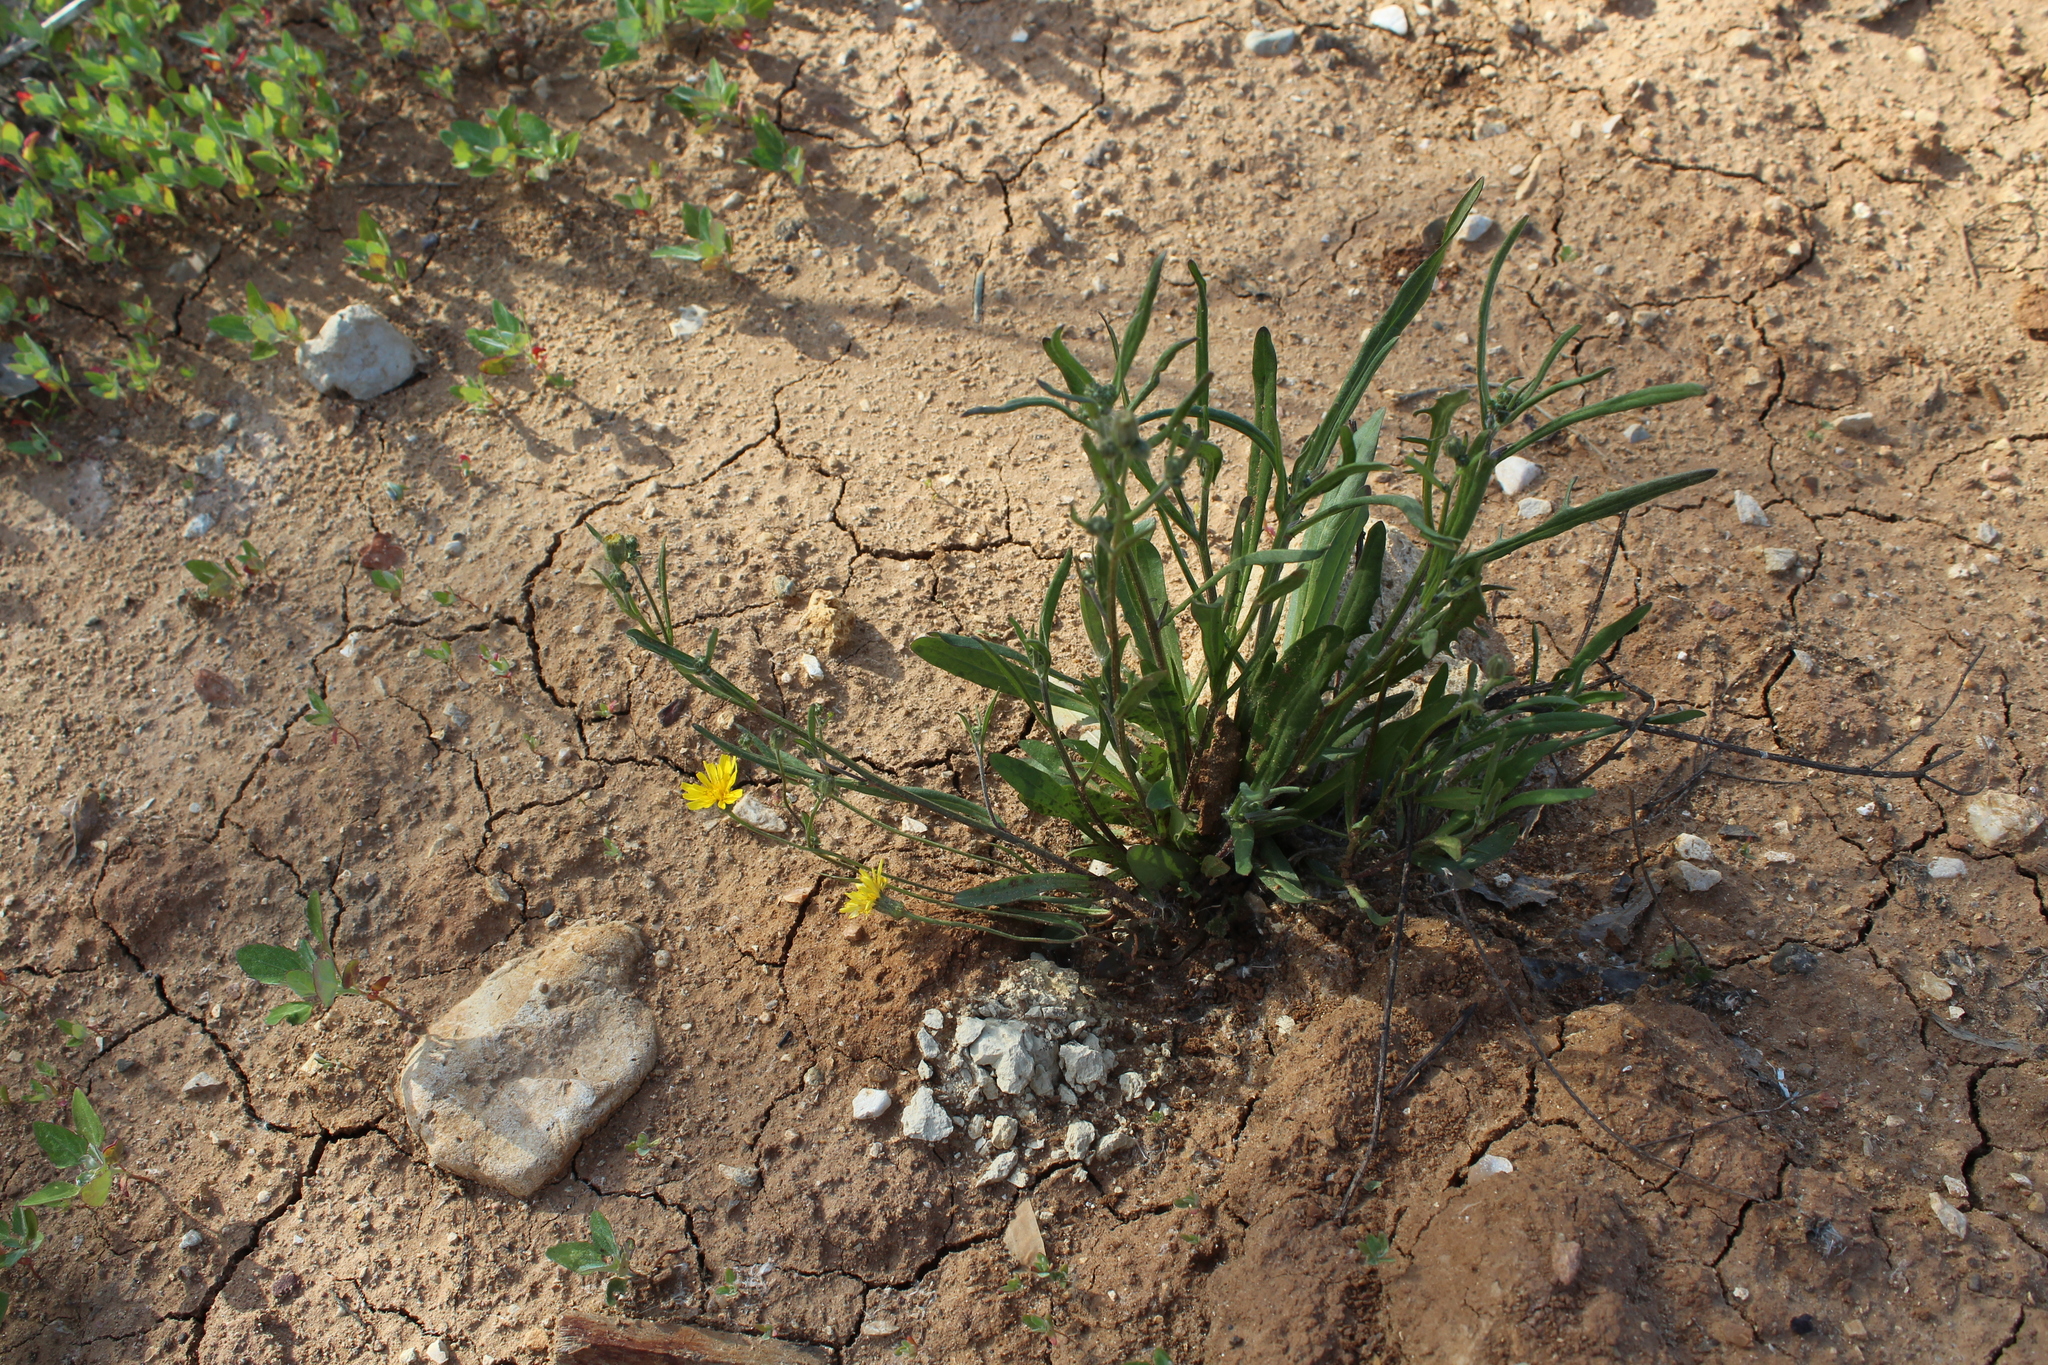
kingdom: Plantae
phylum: Tracheophyta
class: Magnoliopsida
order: Asterales
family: Asteraceae
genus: Crepis
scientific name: Crepis tectorum
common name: Narrow-leaved hawk's-beard
